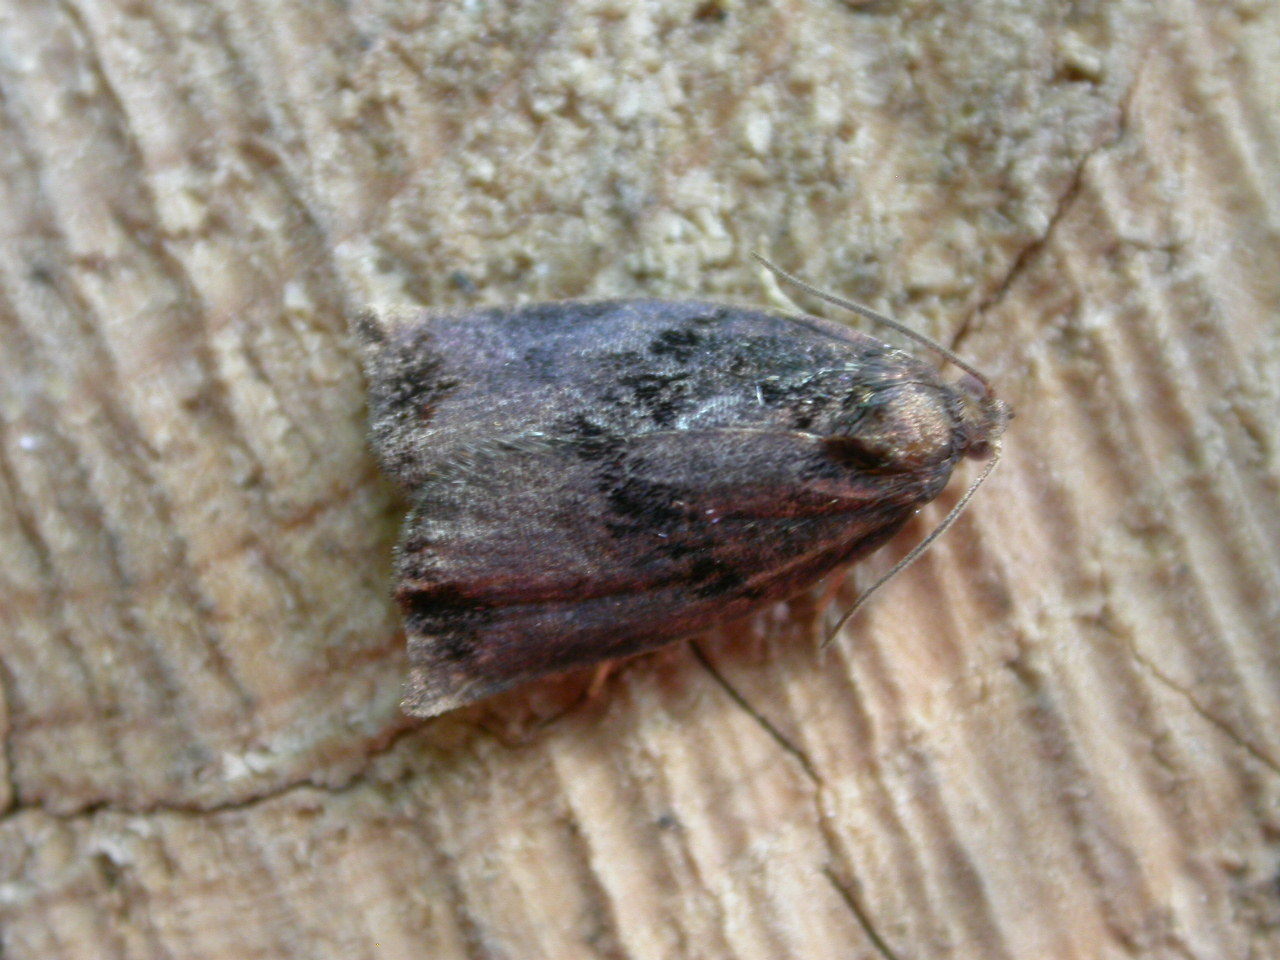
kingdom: Animalia
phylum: Arthropoda
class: Insecta
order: Lepidoptera
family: Tortricidae
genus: Archips
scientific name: Archips podana
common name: Large fruit-tree tortrix
